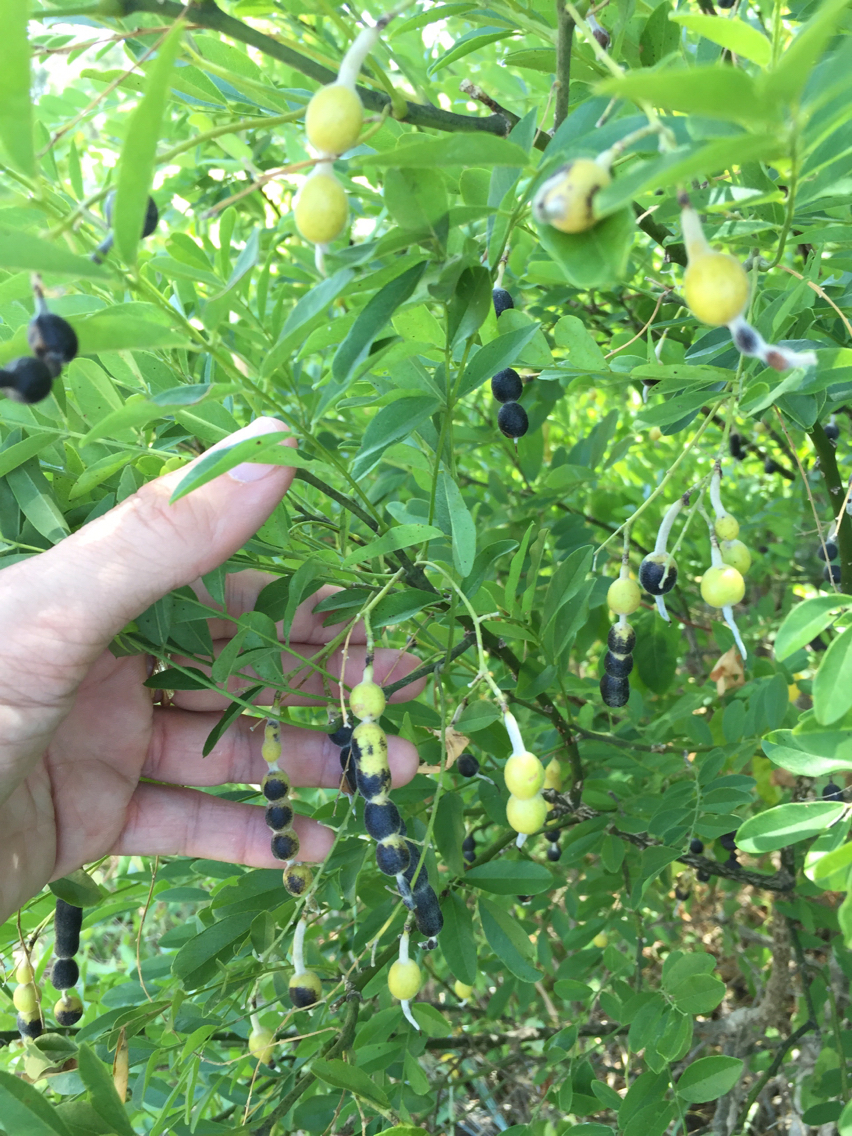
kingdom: Plantae
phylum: Tracheophyta
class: Magnoliopsida
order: Fabales
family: Fabaceae
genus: Styphnolobium
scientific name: Styphnolobium affine
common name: Texas sophora
